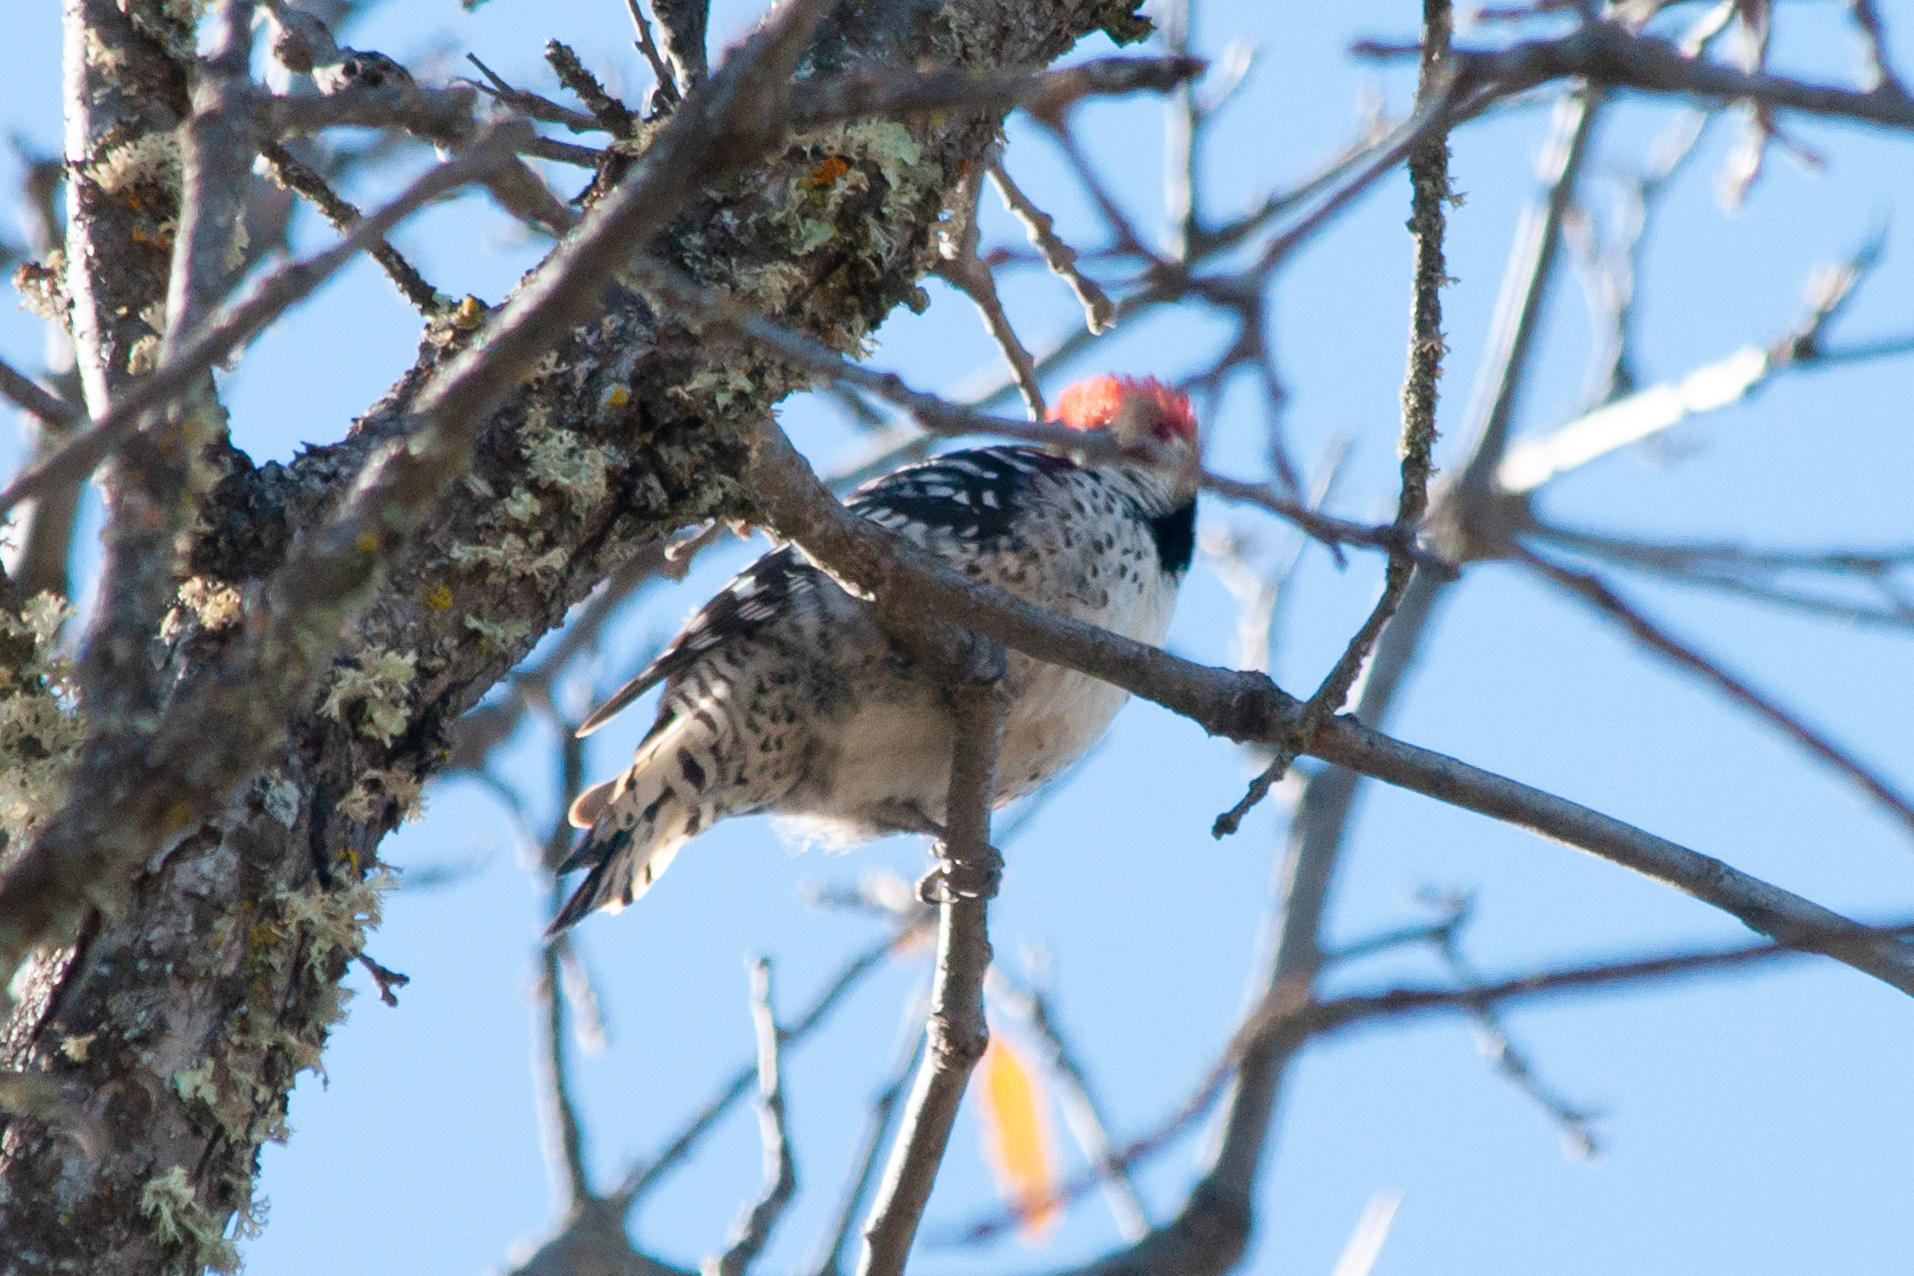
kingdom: Animalia
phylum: Chordata
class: Aves
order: Piciformes
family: Picidae
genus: Dryobates
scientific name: Dryobates nuttallii
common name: Nuttall's woodpecker
